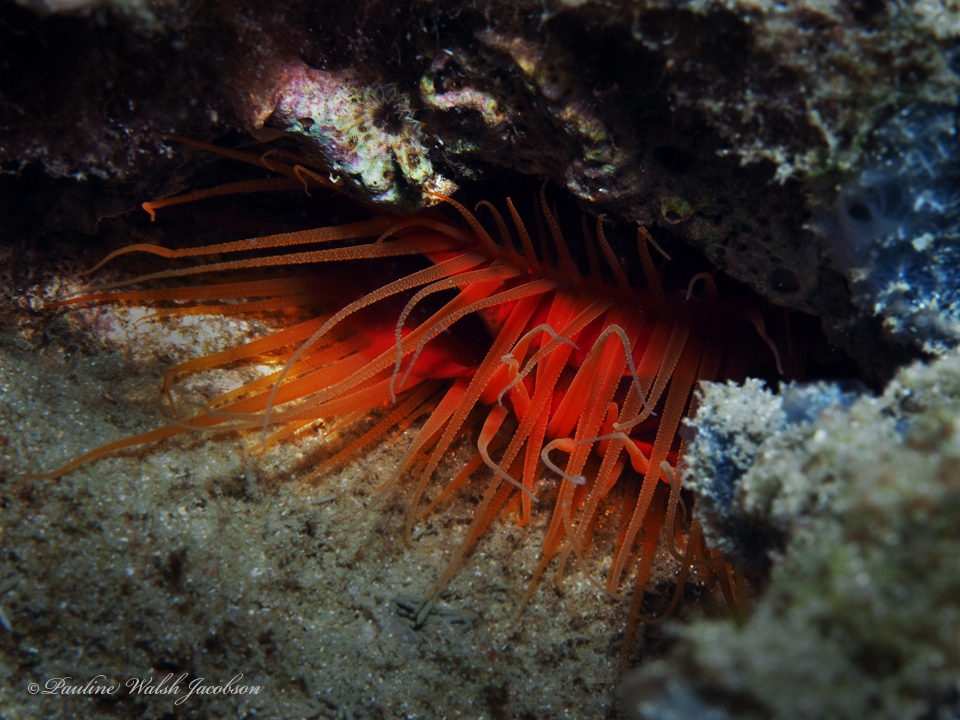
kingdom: Animalia
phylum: Mollusca
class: Bivalvia
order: Limida
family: Limidae
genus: Ctenoides
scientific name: Ctenoides scaber
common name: Rough fileclam
